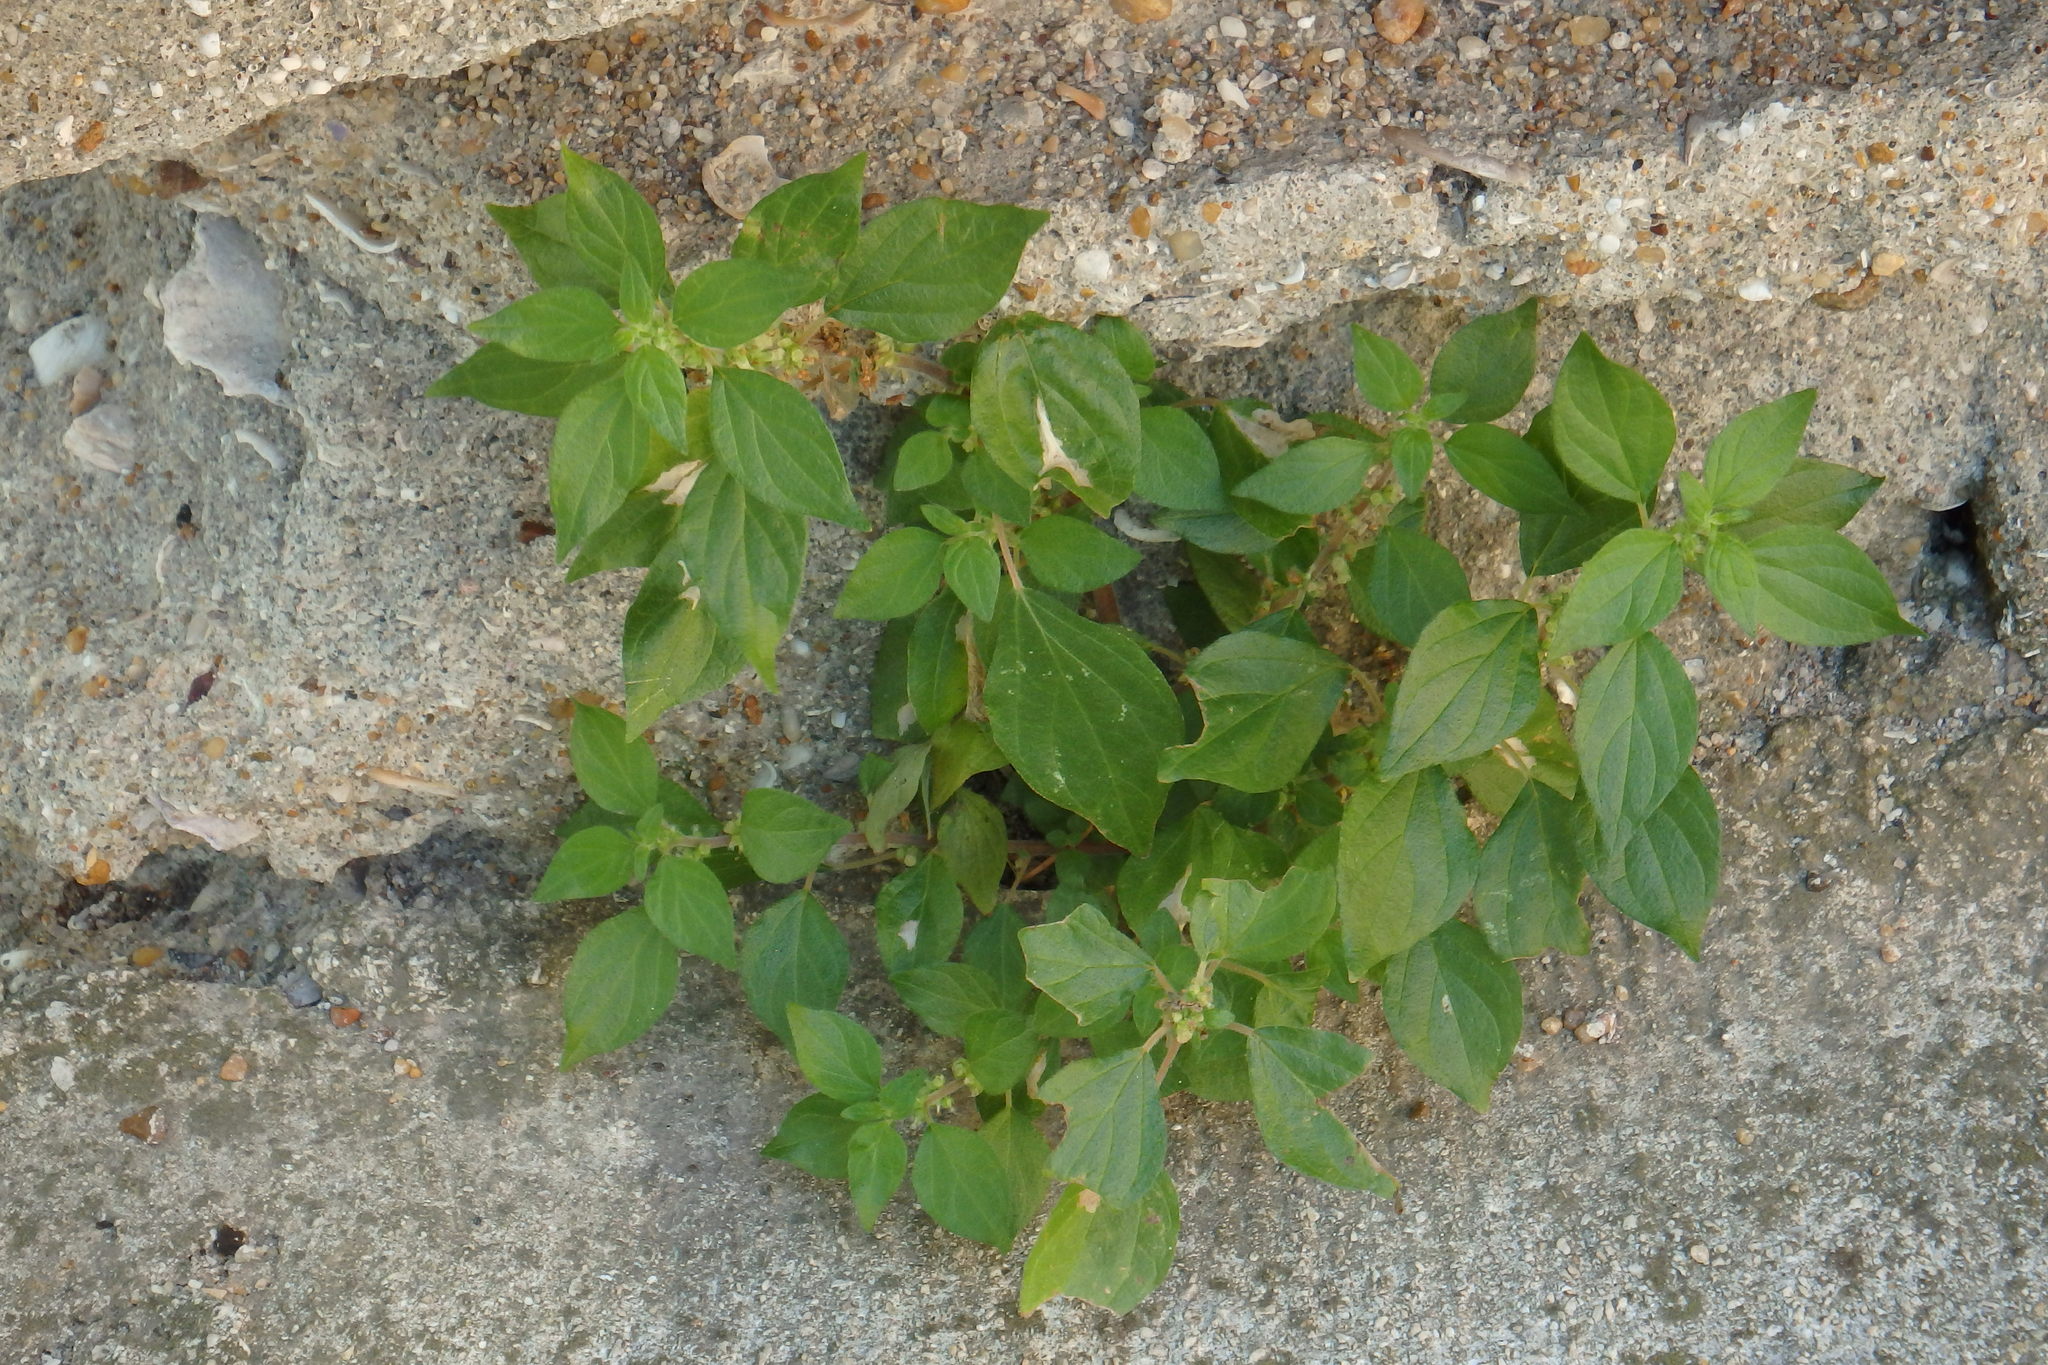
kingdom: Plantae
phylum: Tracheophyta
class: Magnoliopsida
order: Rosales
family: Urticaceae
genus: Parietaria
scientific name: Parietaria judaica
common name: Pellitory-of-the-wall
